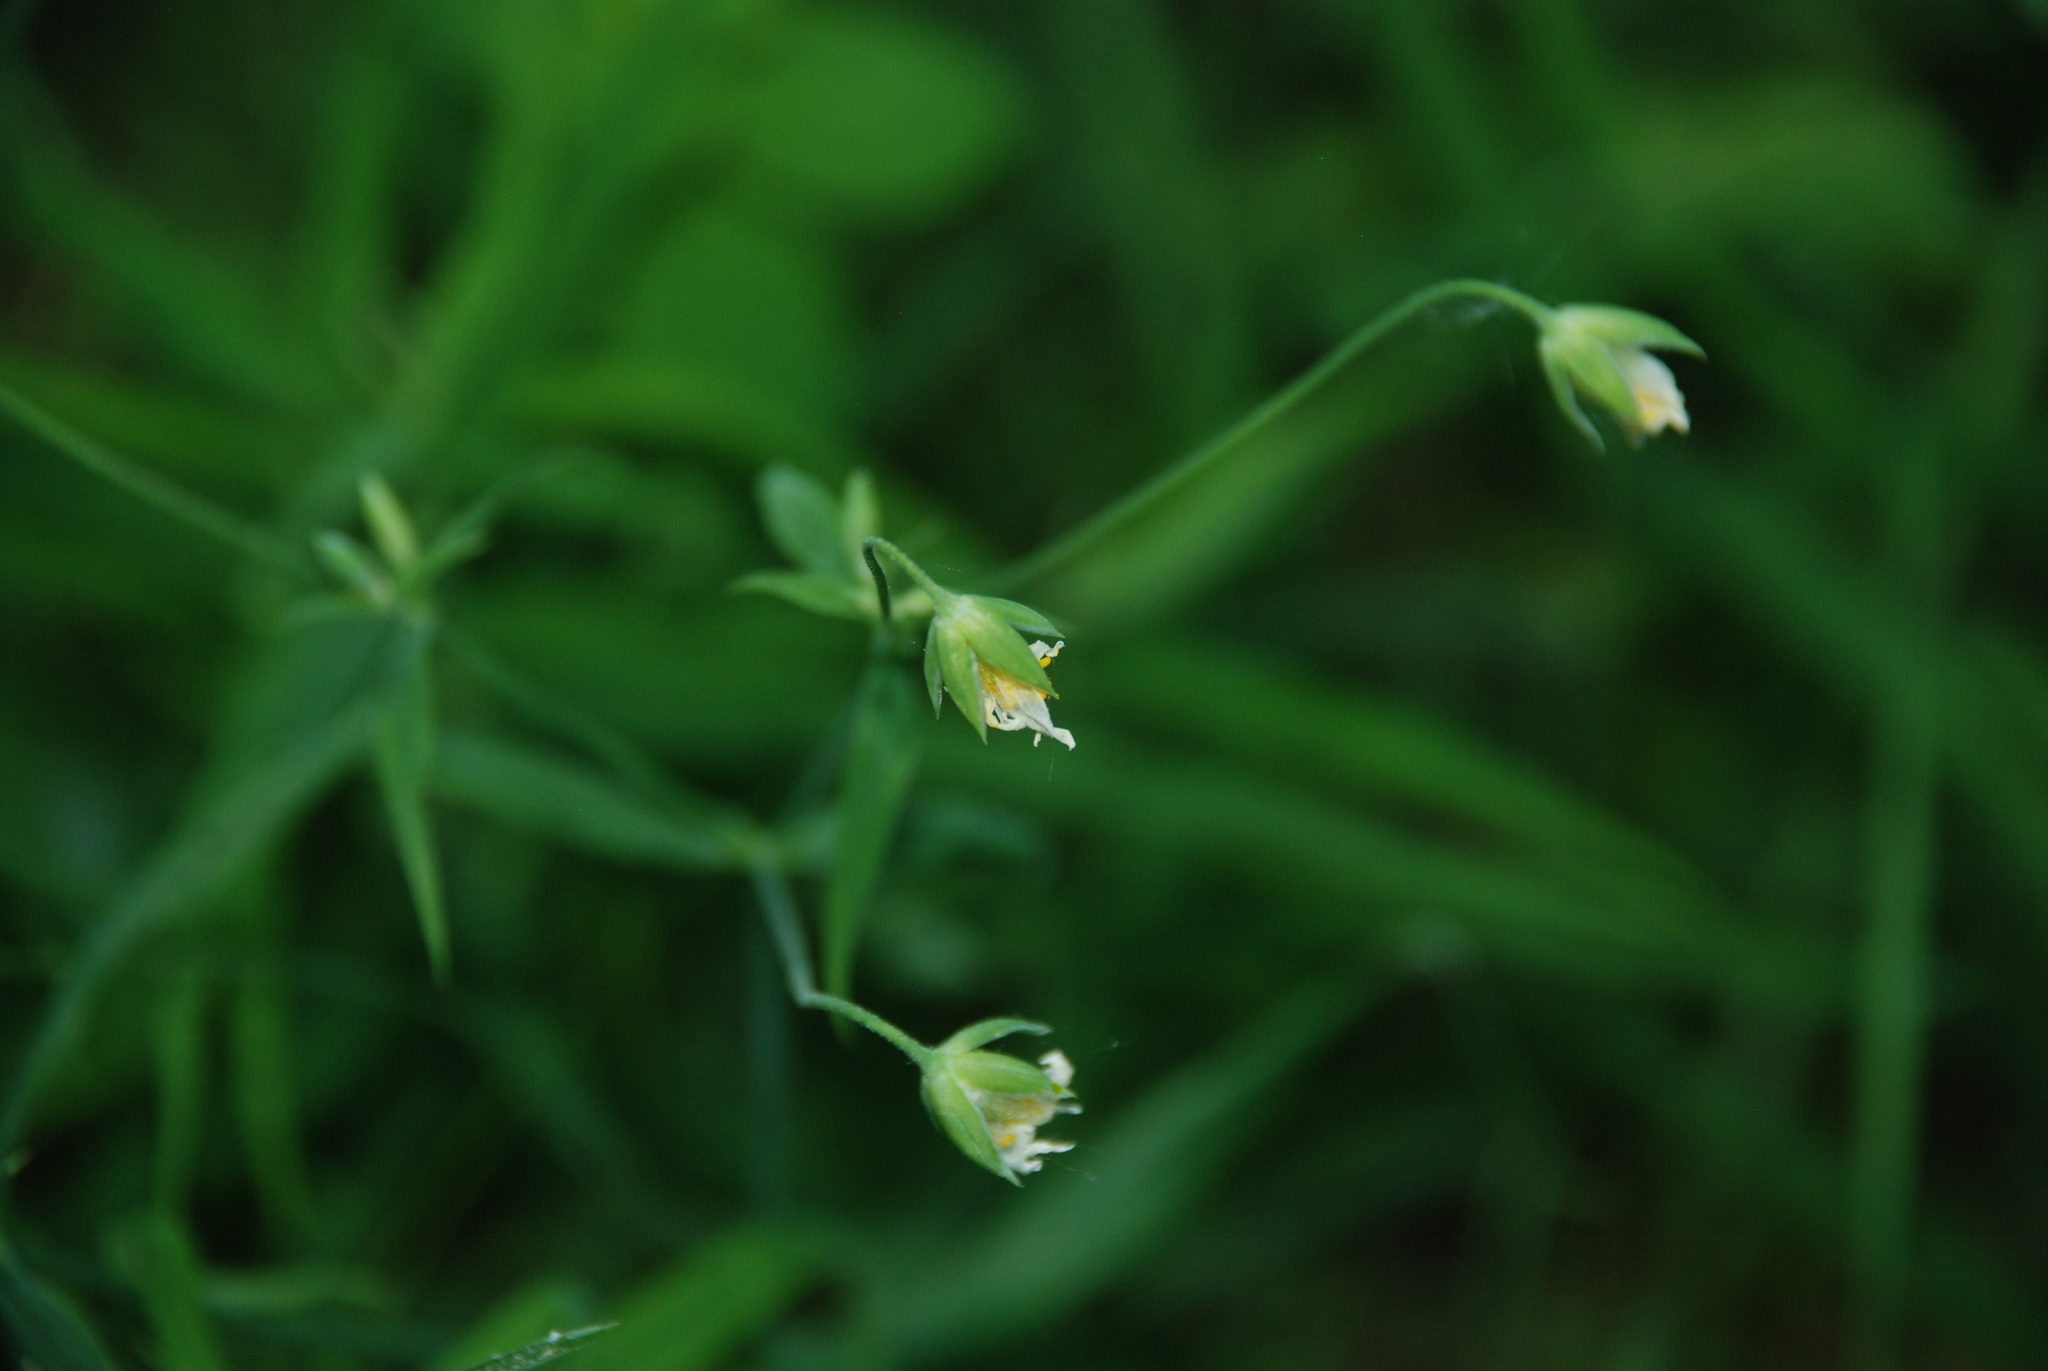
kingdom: Plantae
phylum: Tracheophyta
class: Magnoliopsida
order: Caryophyllales
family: Caryophyllaceae
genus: Rabelera
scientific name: Rabelera holostea
